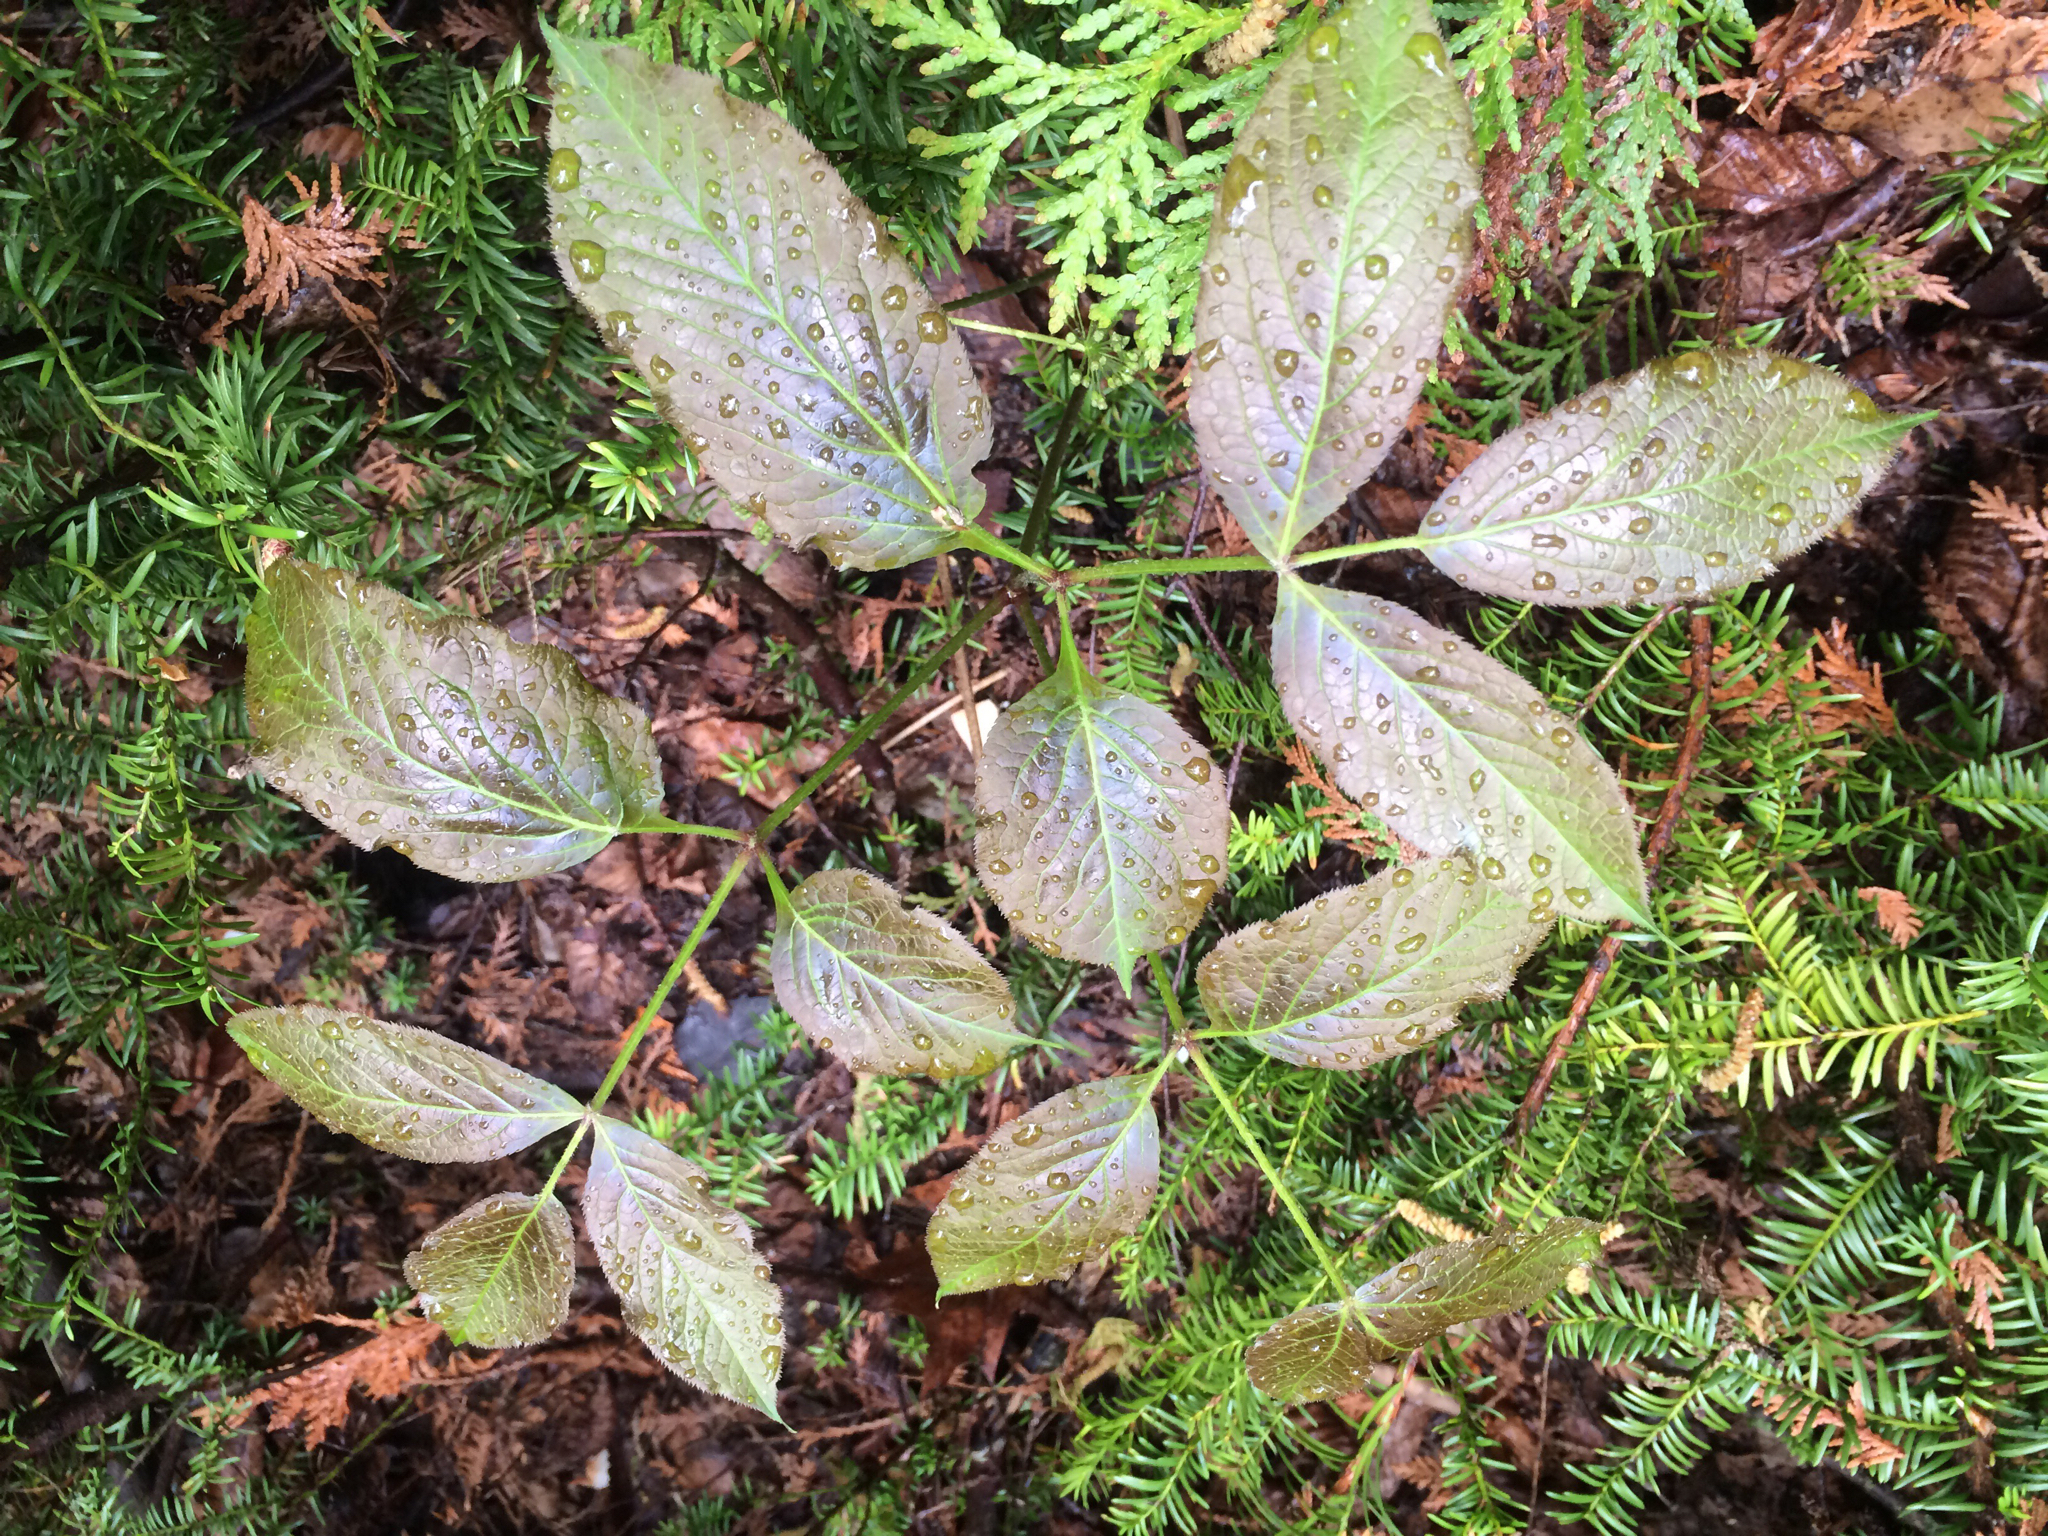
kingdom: Plantae
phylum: Tracheophyta
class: Magnoliopsida
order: Apiales
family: Araliaceae
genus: Aralia
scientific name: Aralia nudicaulis
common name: Wild sarsaparilla
